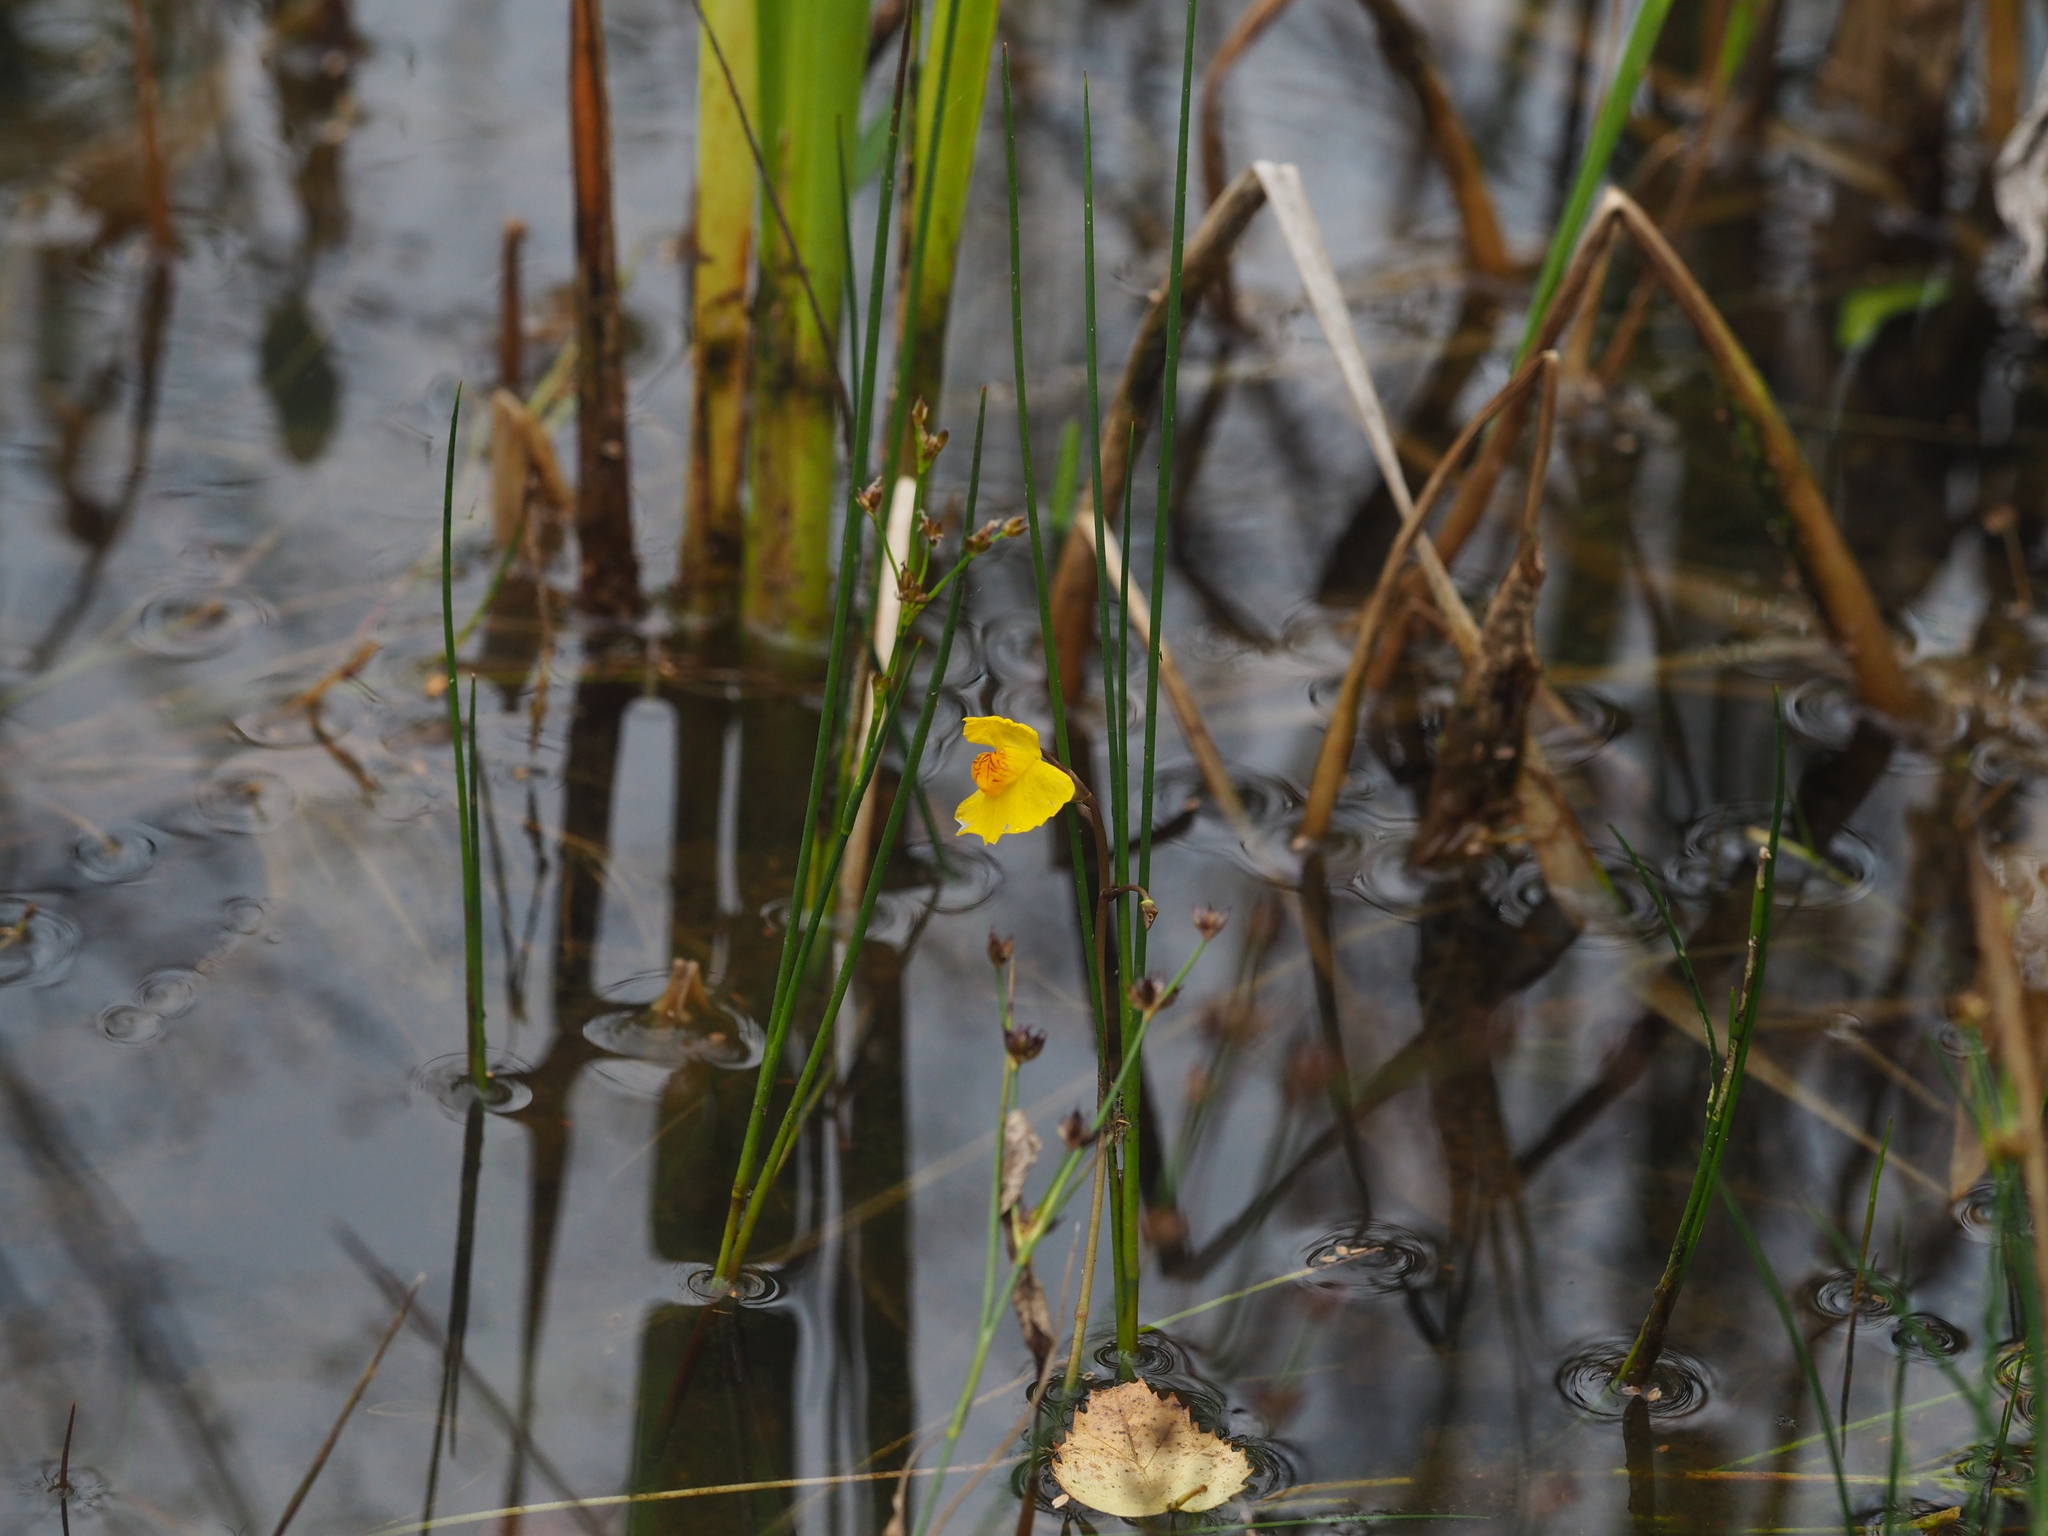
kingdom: Plantae
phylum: Tracheophyta
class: Magnoliopsida
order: Lamiales
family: Lentibulariaceae
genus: Utricularia
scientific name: Utricularia australis
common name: Bladderwort
